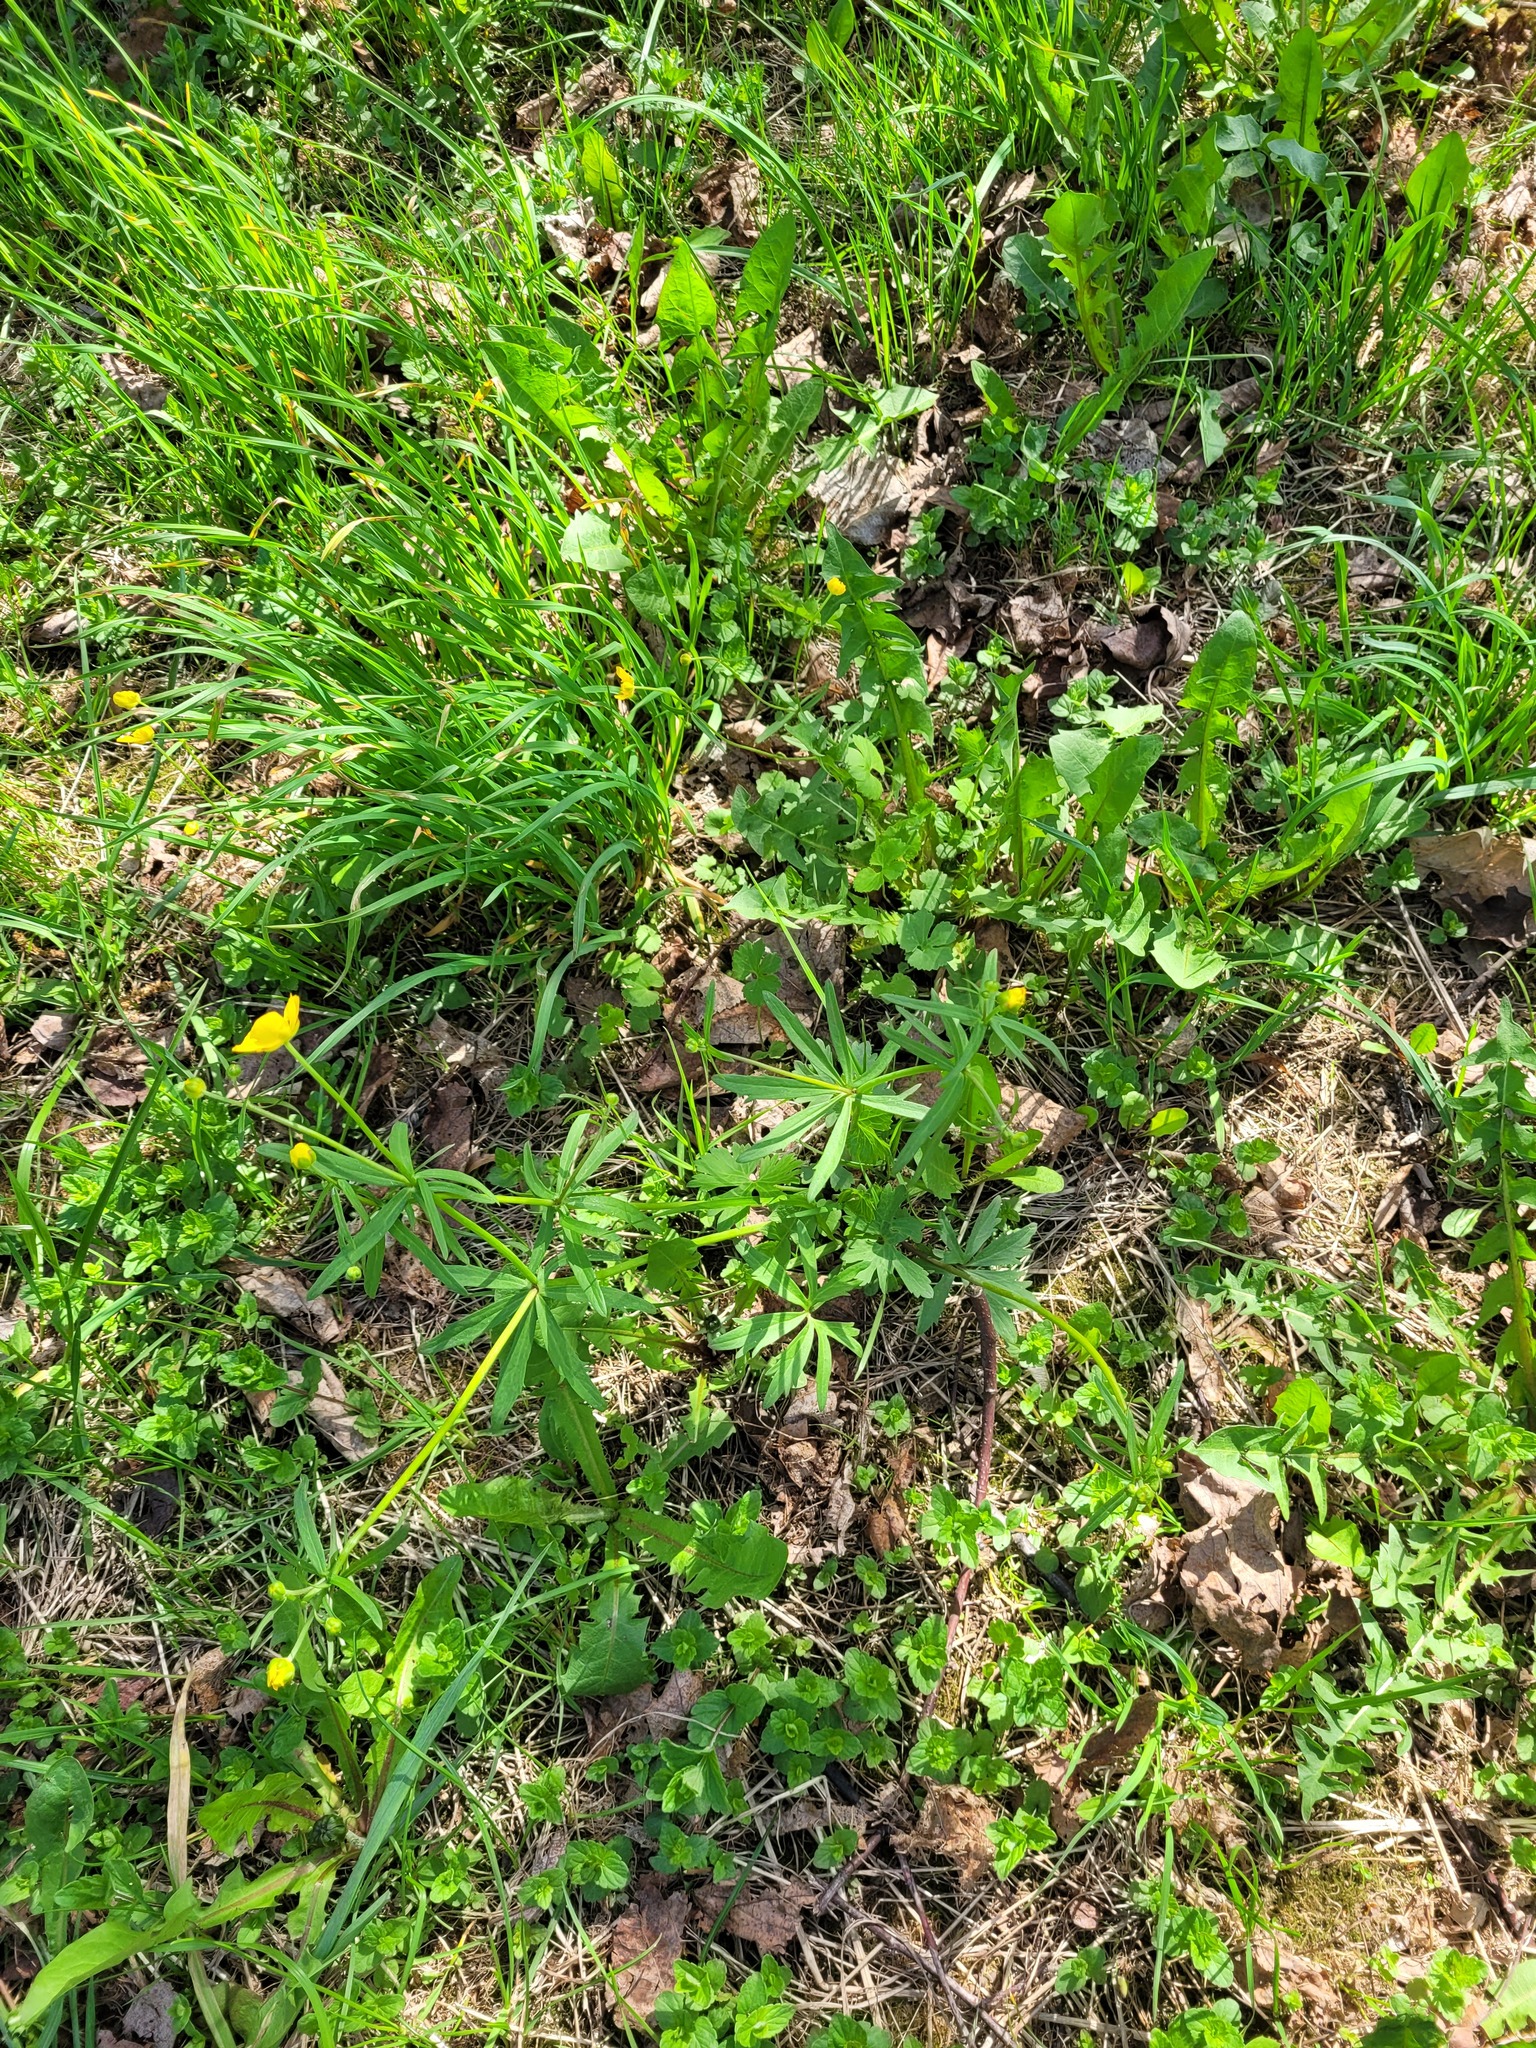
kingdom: Plantae
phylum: Tracheophyta
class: Magnoliopsida
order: Ranunculales
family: Ranunculaceae
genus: Ranunculus
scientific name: Ranunculus auricomus
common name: Goldilocks buttercup
